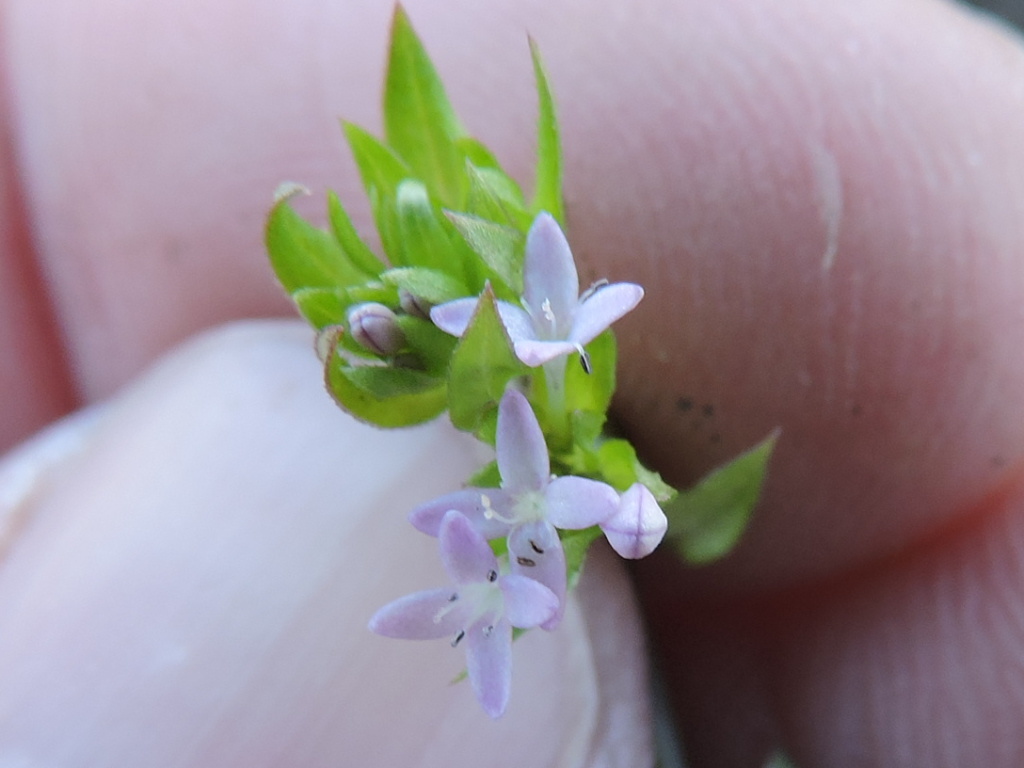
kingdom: Plantae
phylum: Tracheophyta
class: Magnoliopsida
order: Gentianales
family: Rubiaceae
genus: Sherardia
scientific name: Sherardia arvensis
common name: Field madder
